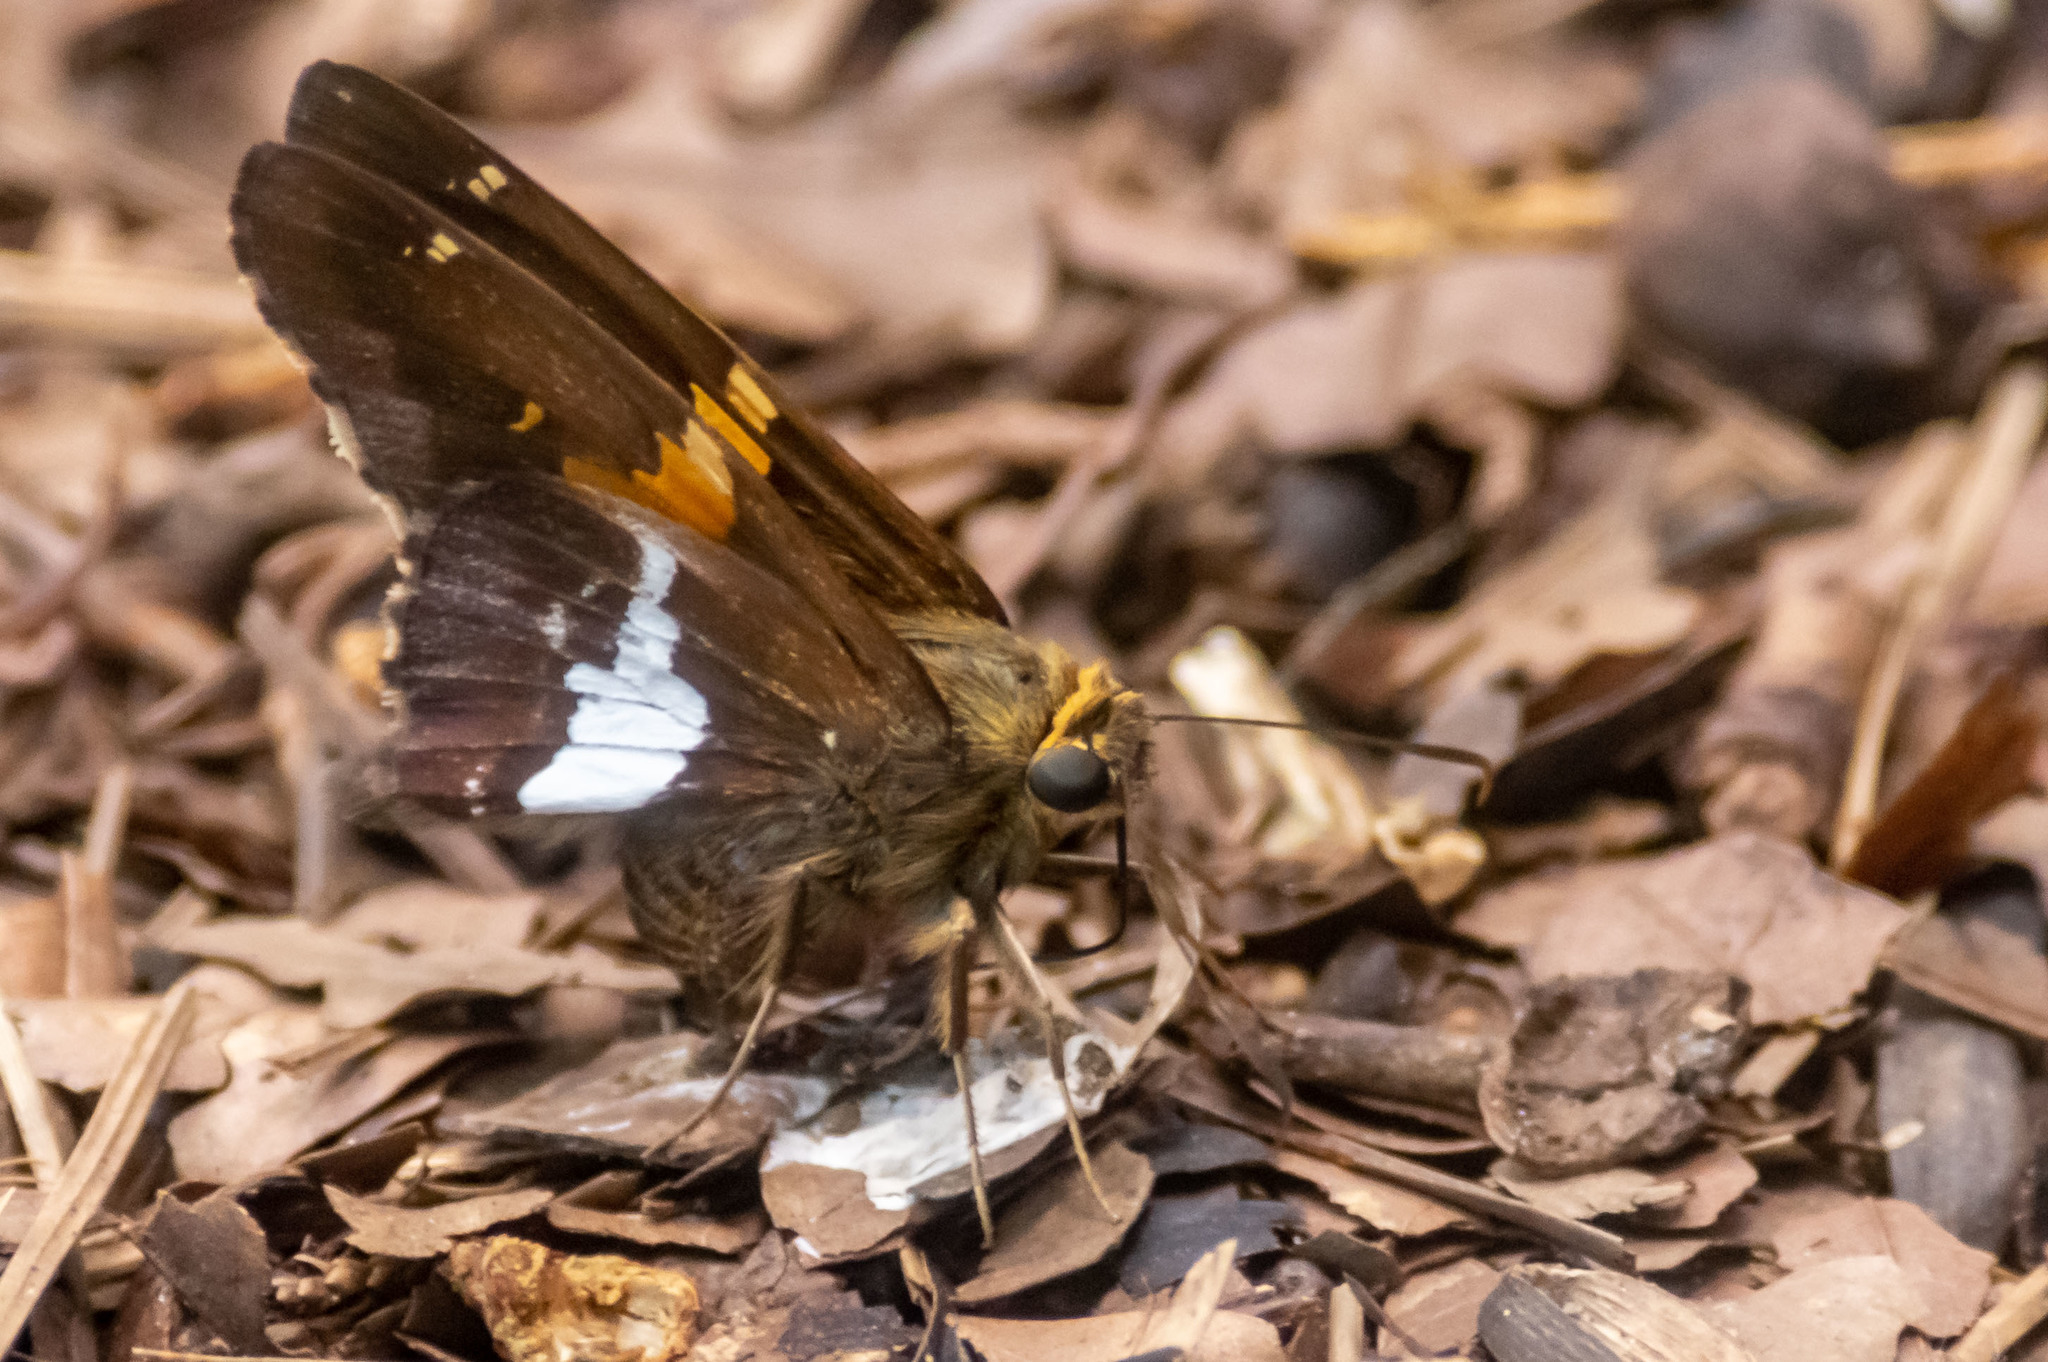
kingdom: Animalia
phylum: Arthropoda
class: Insecta
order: Lepidoptera
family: Hesperiidae
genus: Epargyreus
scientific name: Epargyreus clarus
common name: Silver-spotted skipper
